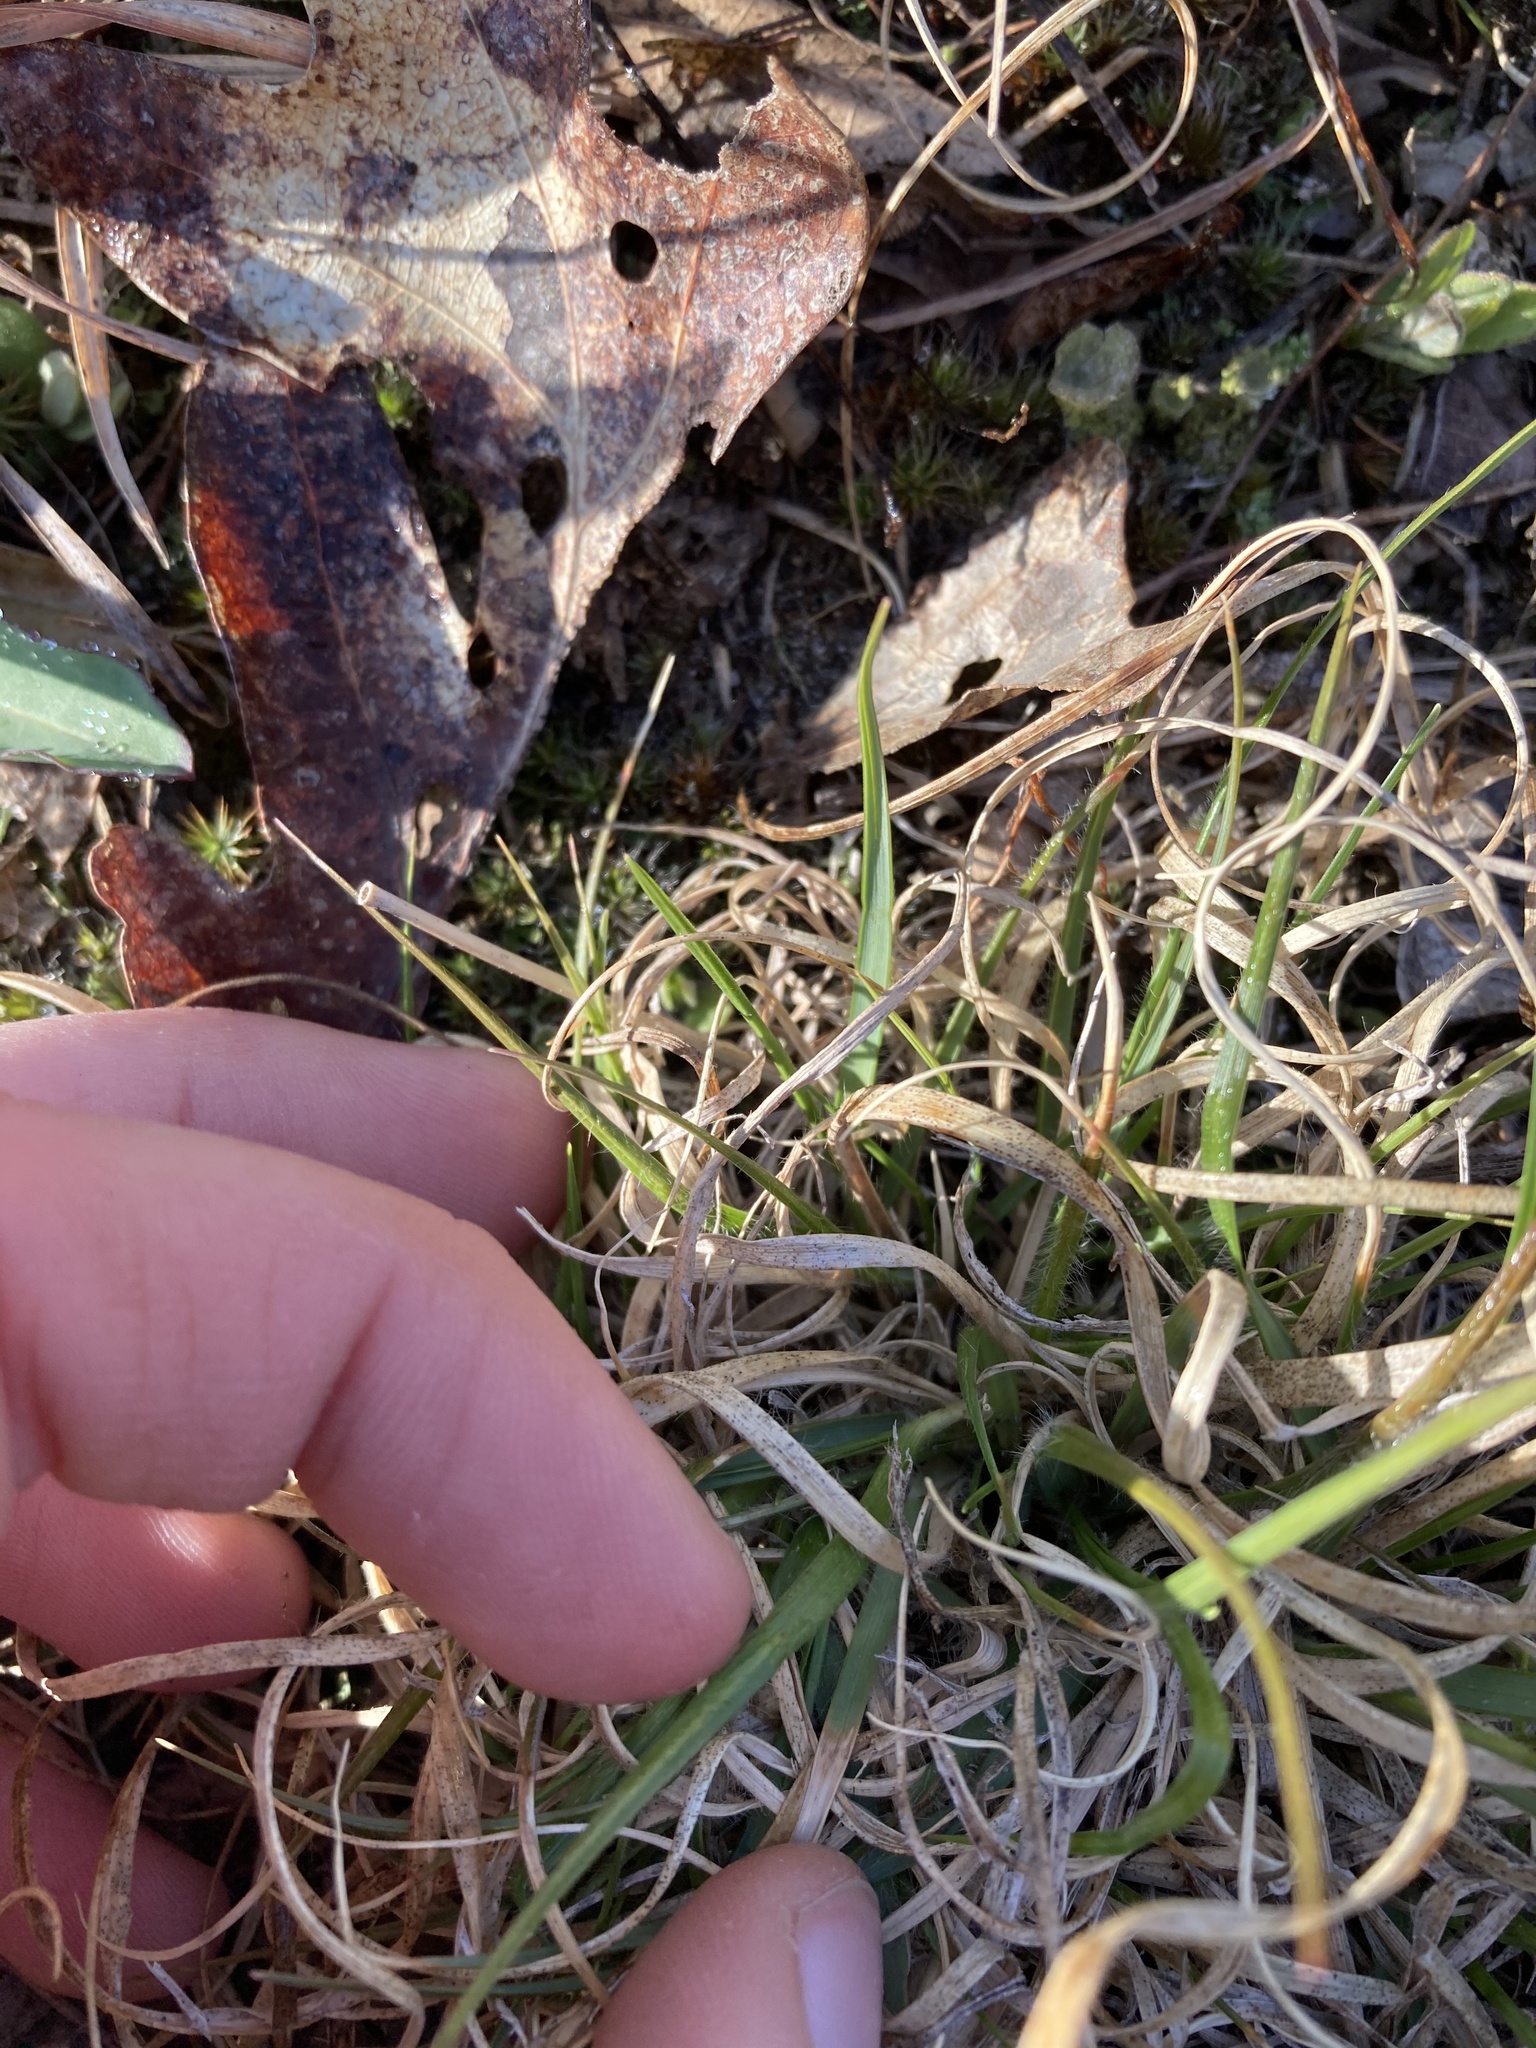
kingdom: Plantae
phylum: Tracheophyta
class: Liliopsida
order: Poales
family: Poaceae
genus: Danthonia
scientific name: Danthonia spicata
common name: Common wild oatgrass
